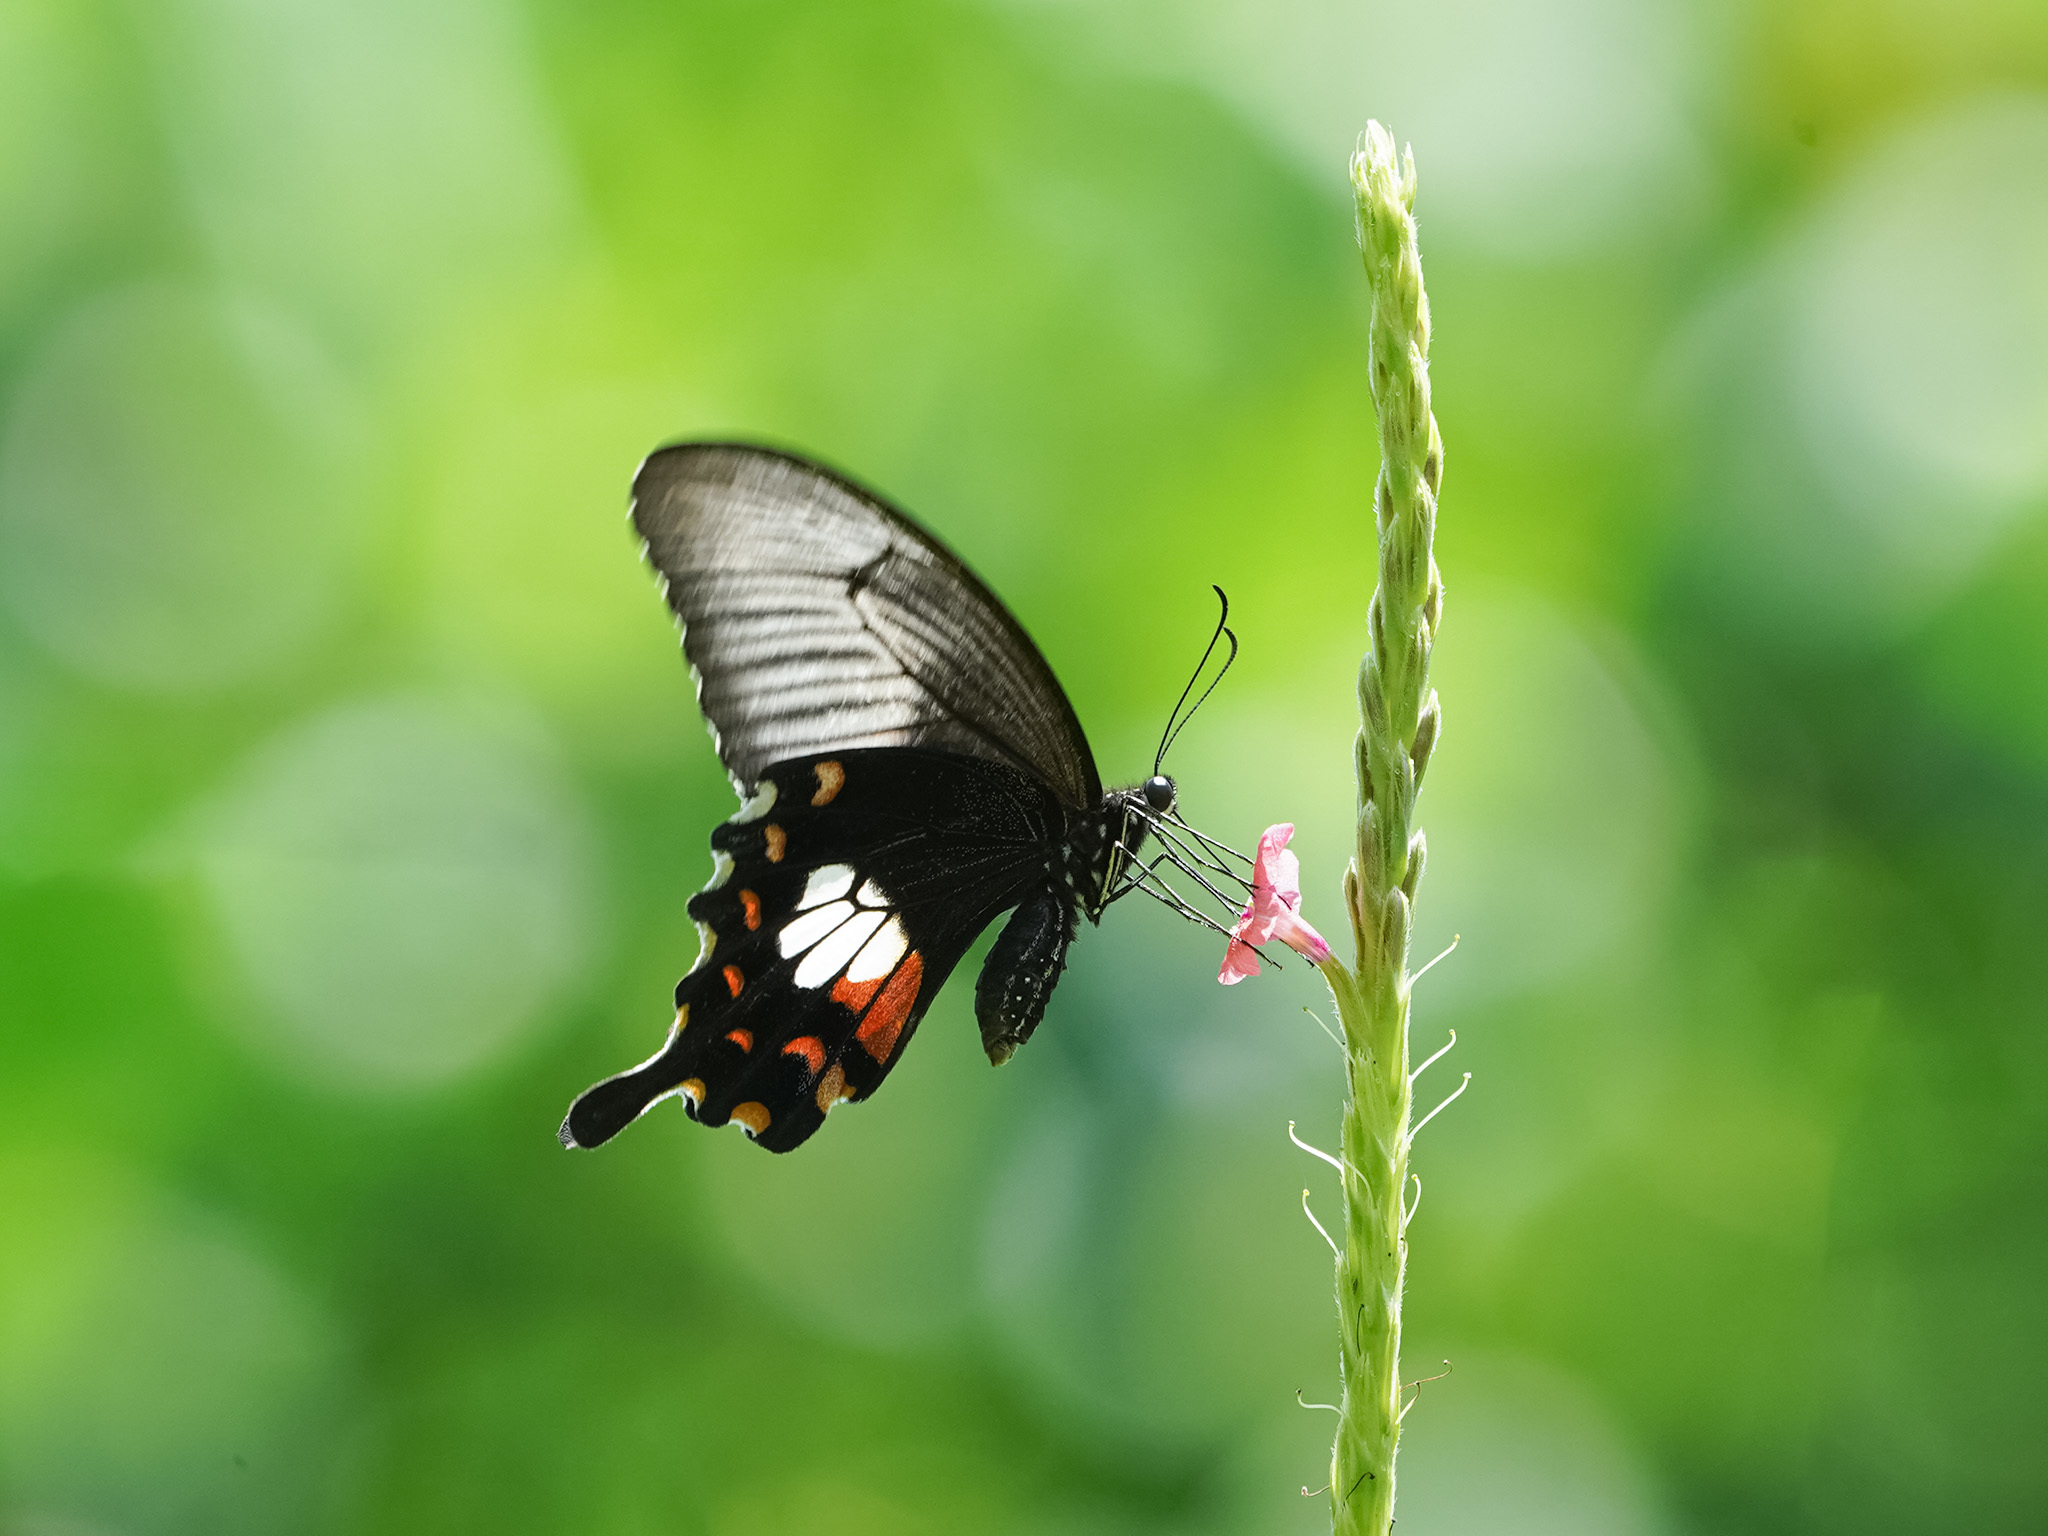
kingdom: Animalia
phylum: Arthropoda
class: Insecta
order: Lepidoptera
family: Papilionidae
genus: Papilio
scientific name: Papilio polytes
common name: Common mormon
